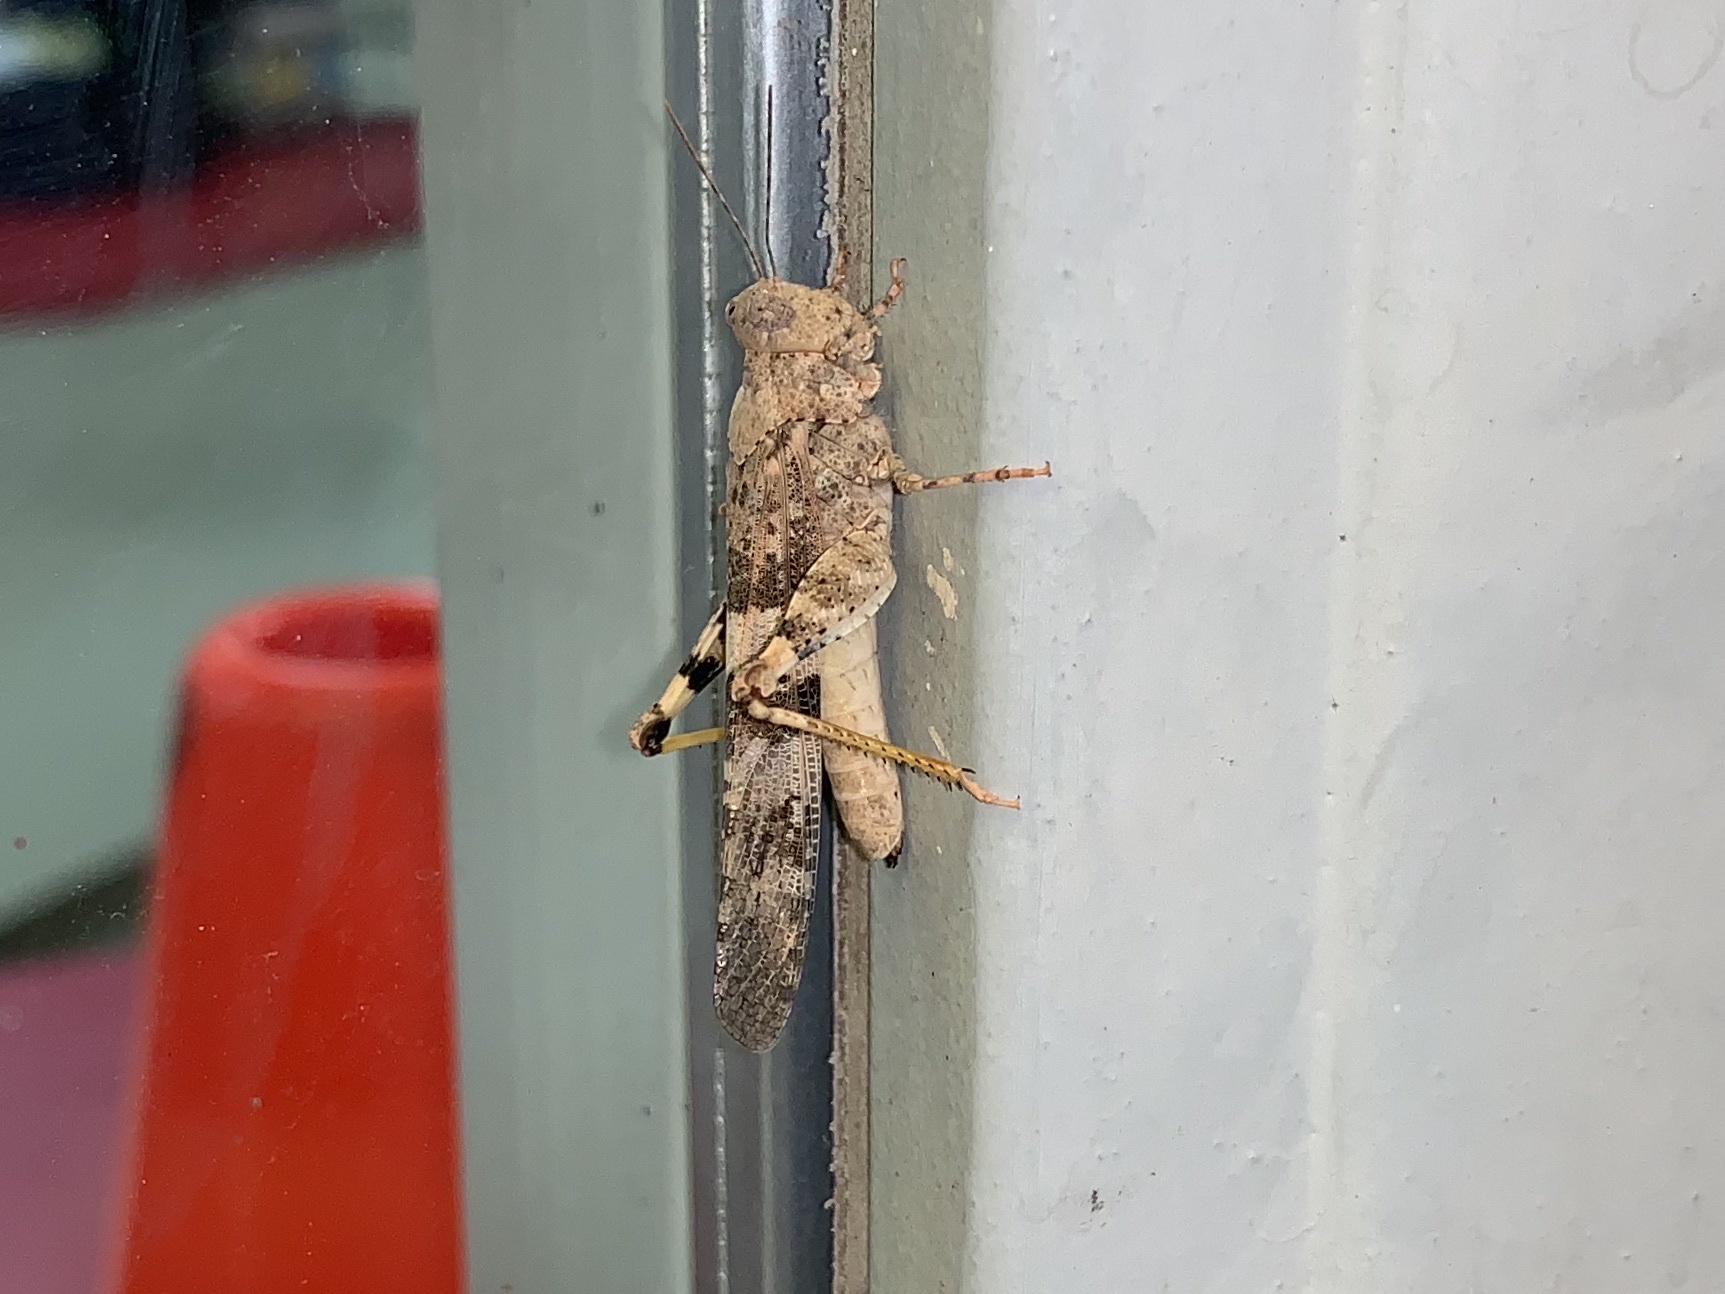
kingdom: Animalia
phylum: Arthropoda
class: Insecta
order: Orthoptera
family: Acrididae
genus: Trimerotropis
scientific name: Trimerotropis pallidipennis
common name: Pallid-winged grasshopper
